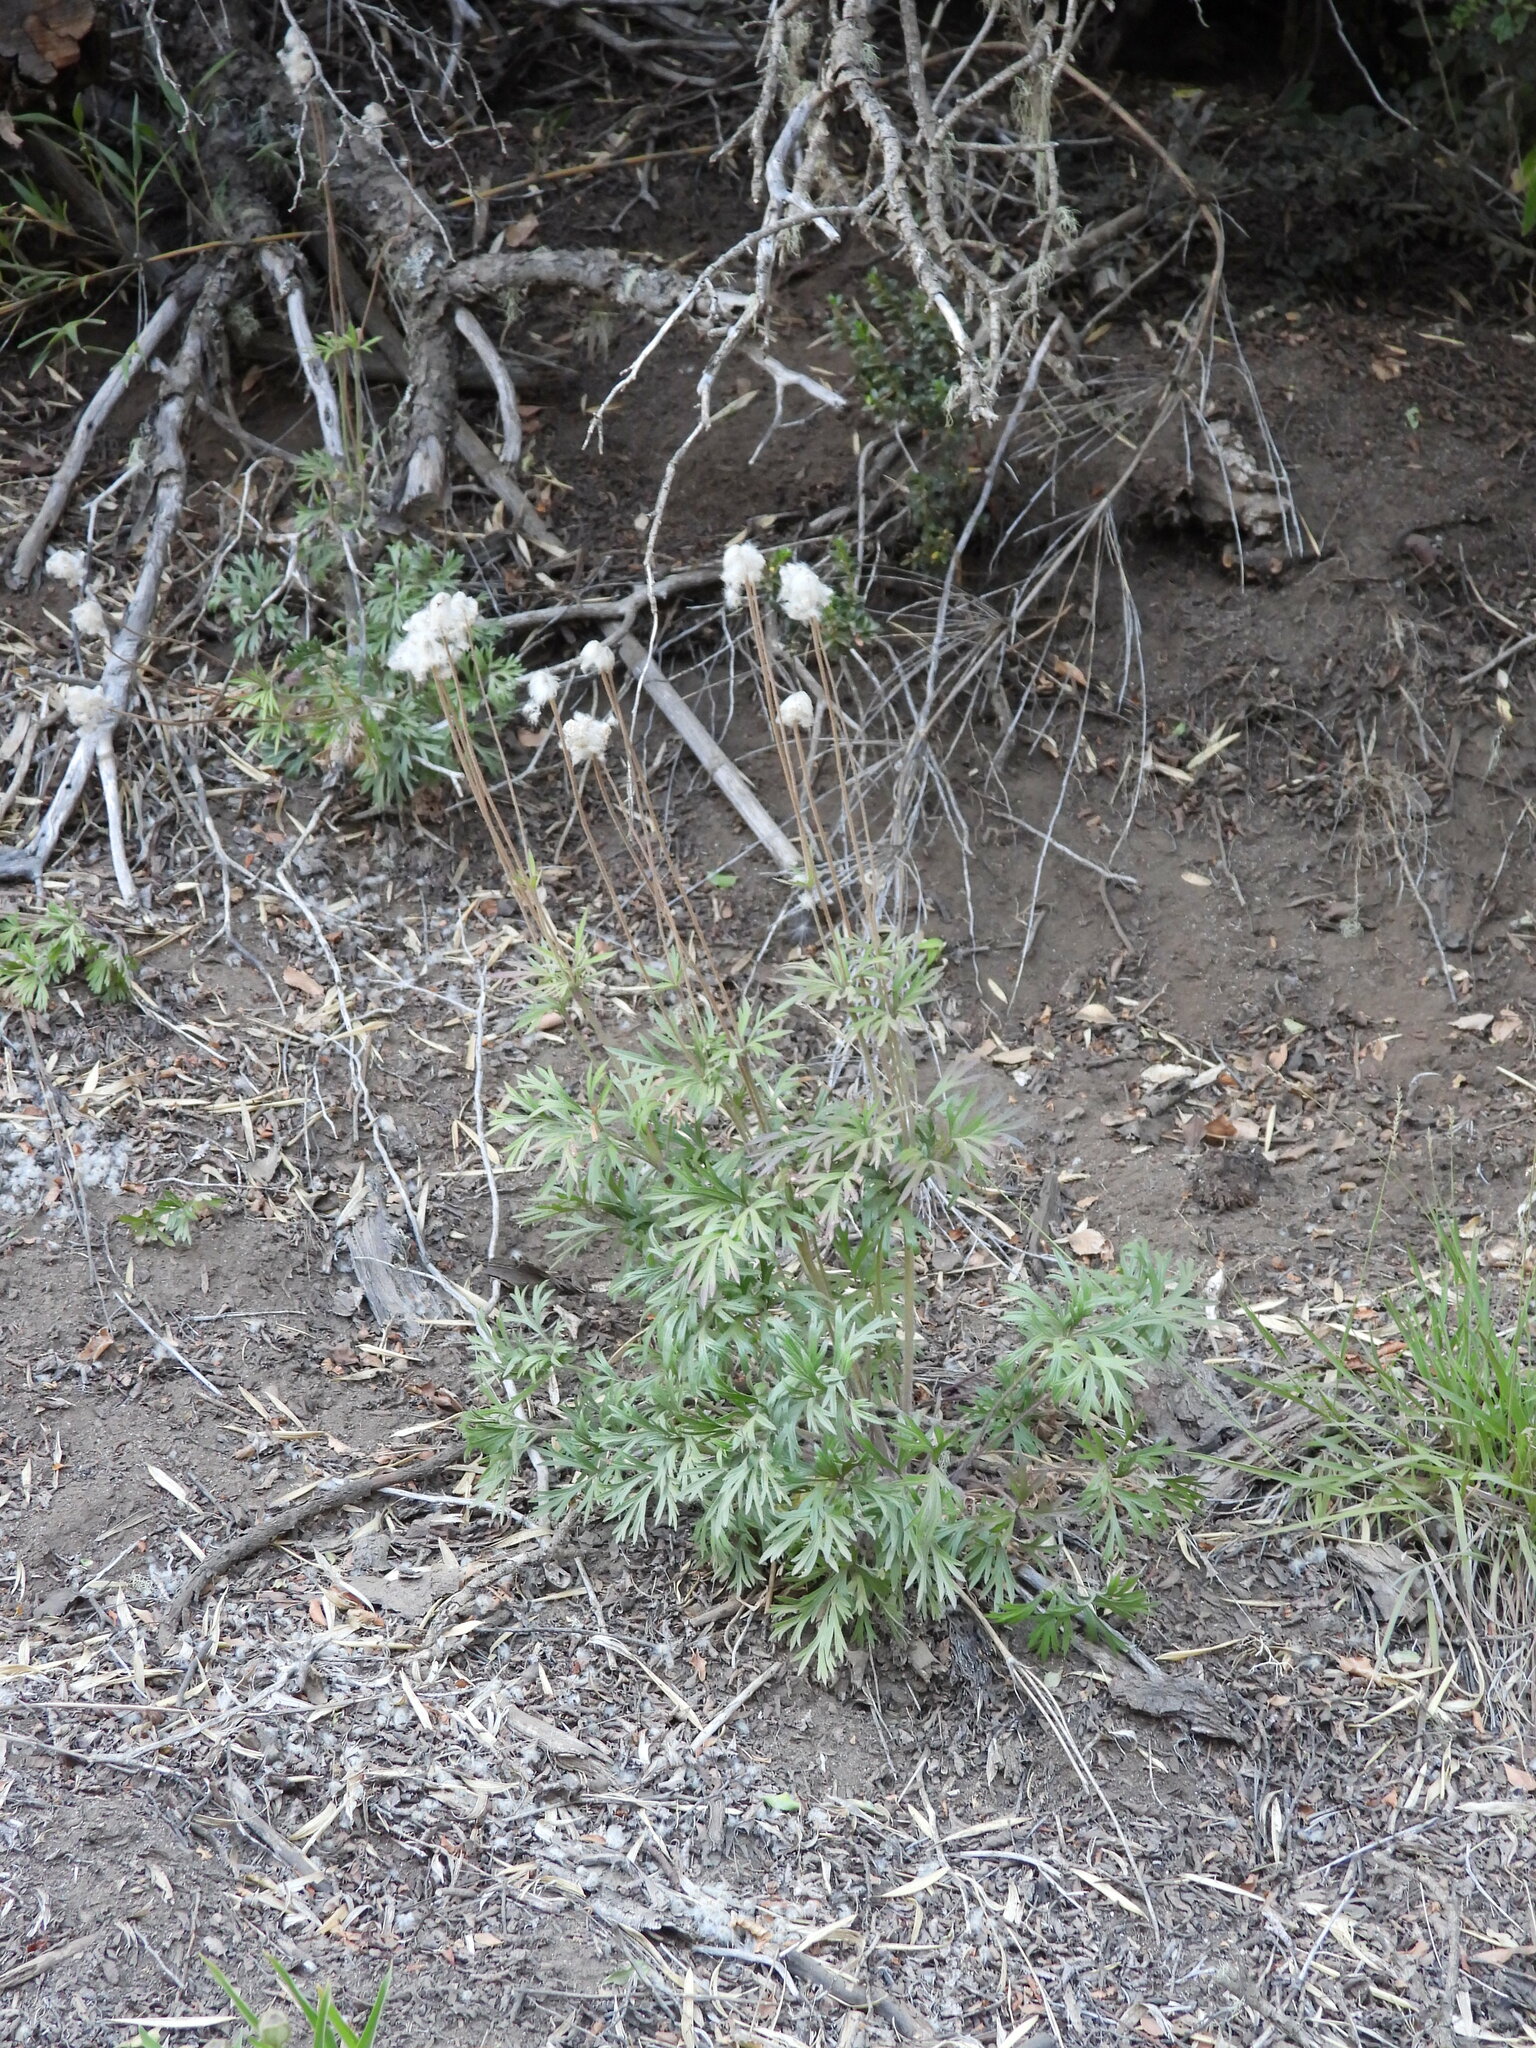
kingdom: Plantae
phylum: Tracheophyta
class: Magnoliopsida
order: Ranunculales
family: Ranunculaceae
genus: Anemone
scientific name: Anemone multifida
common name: Bird's-foot anemone
